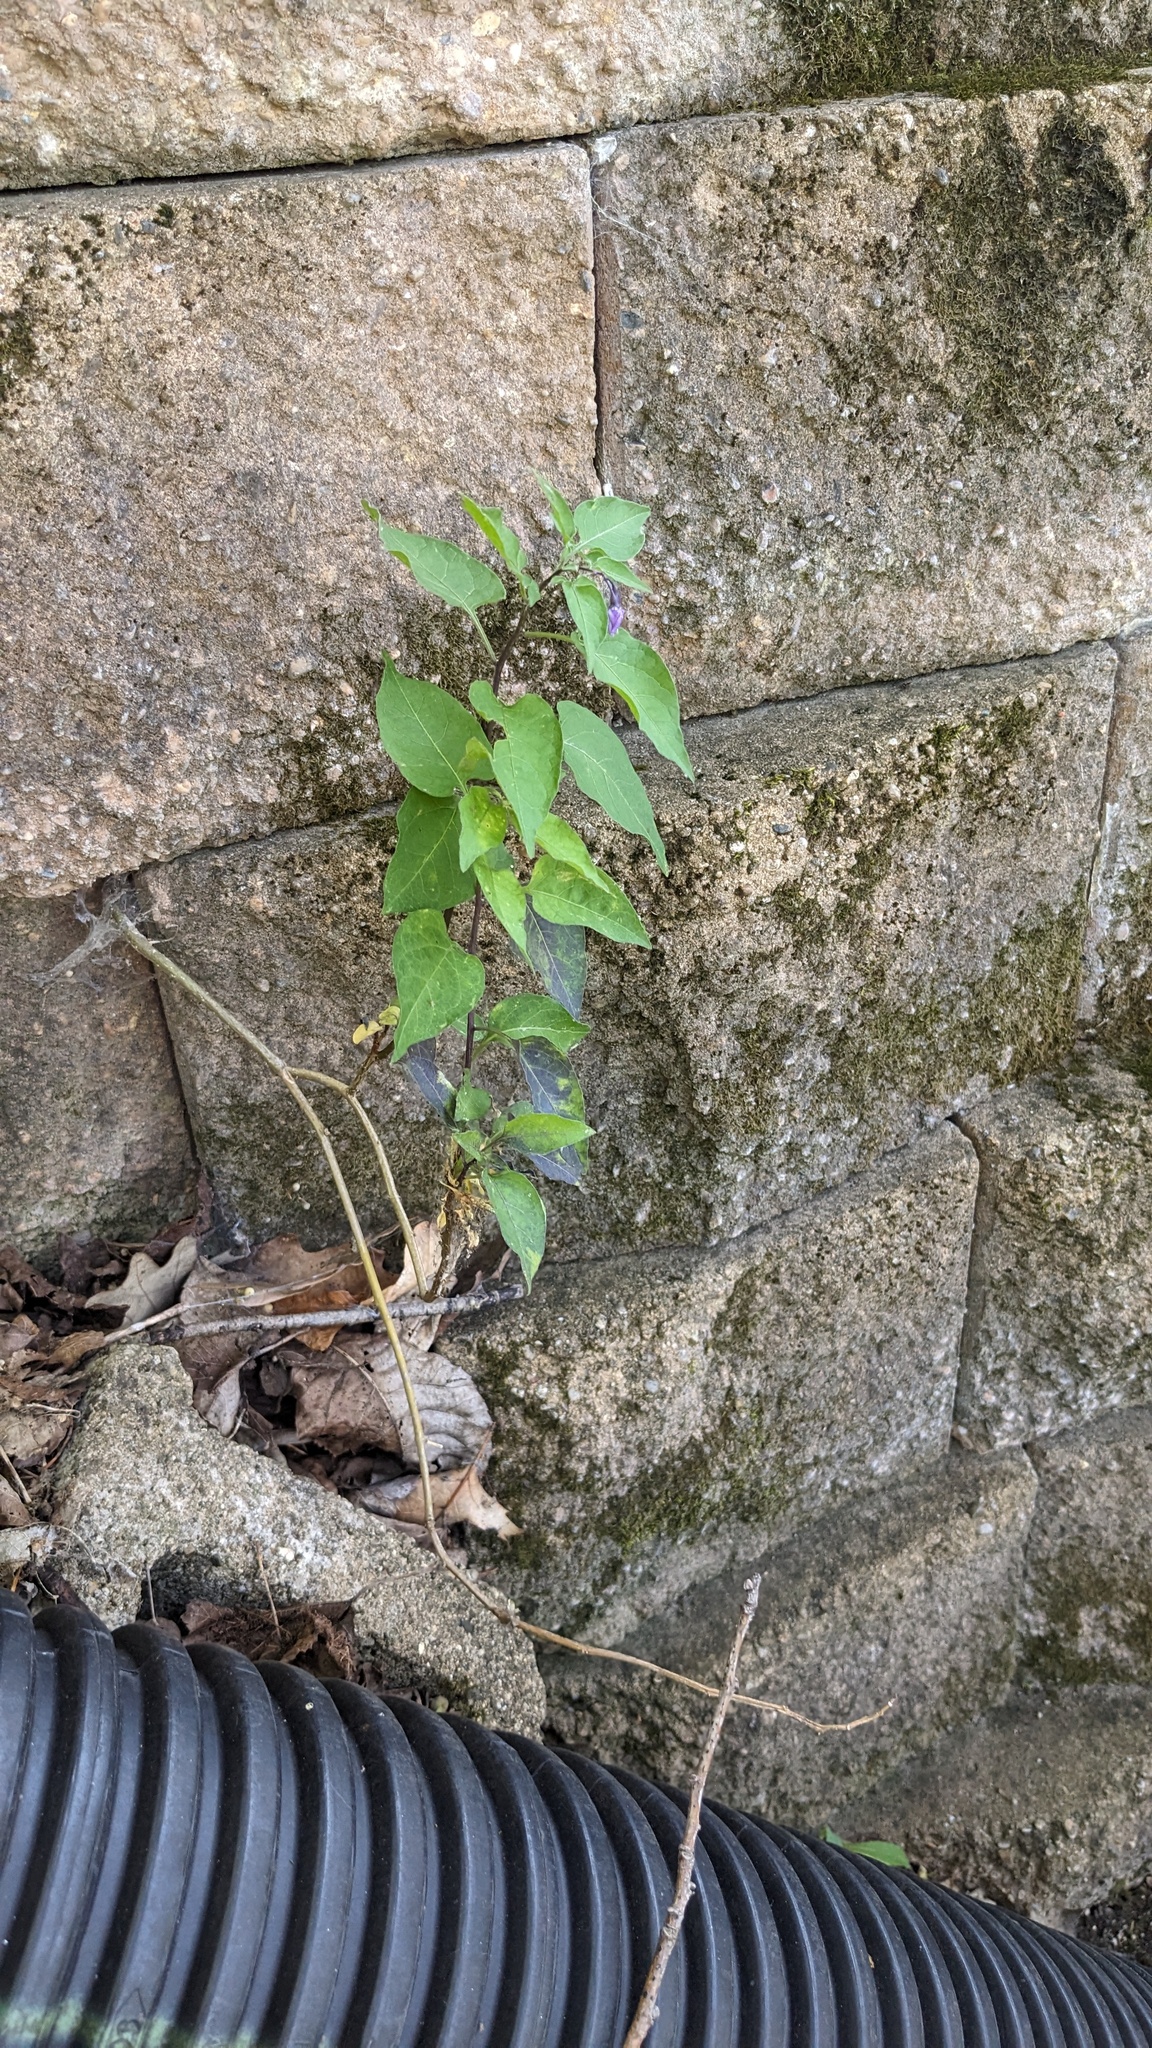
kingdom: Plantae
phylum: Tracheophyta
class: Magnoliopsida
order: Solanales
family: Solanaceae
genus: Solanum
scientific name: Solanum dulcamara
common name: Climbing nightshade
